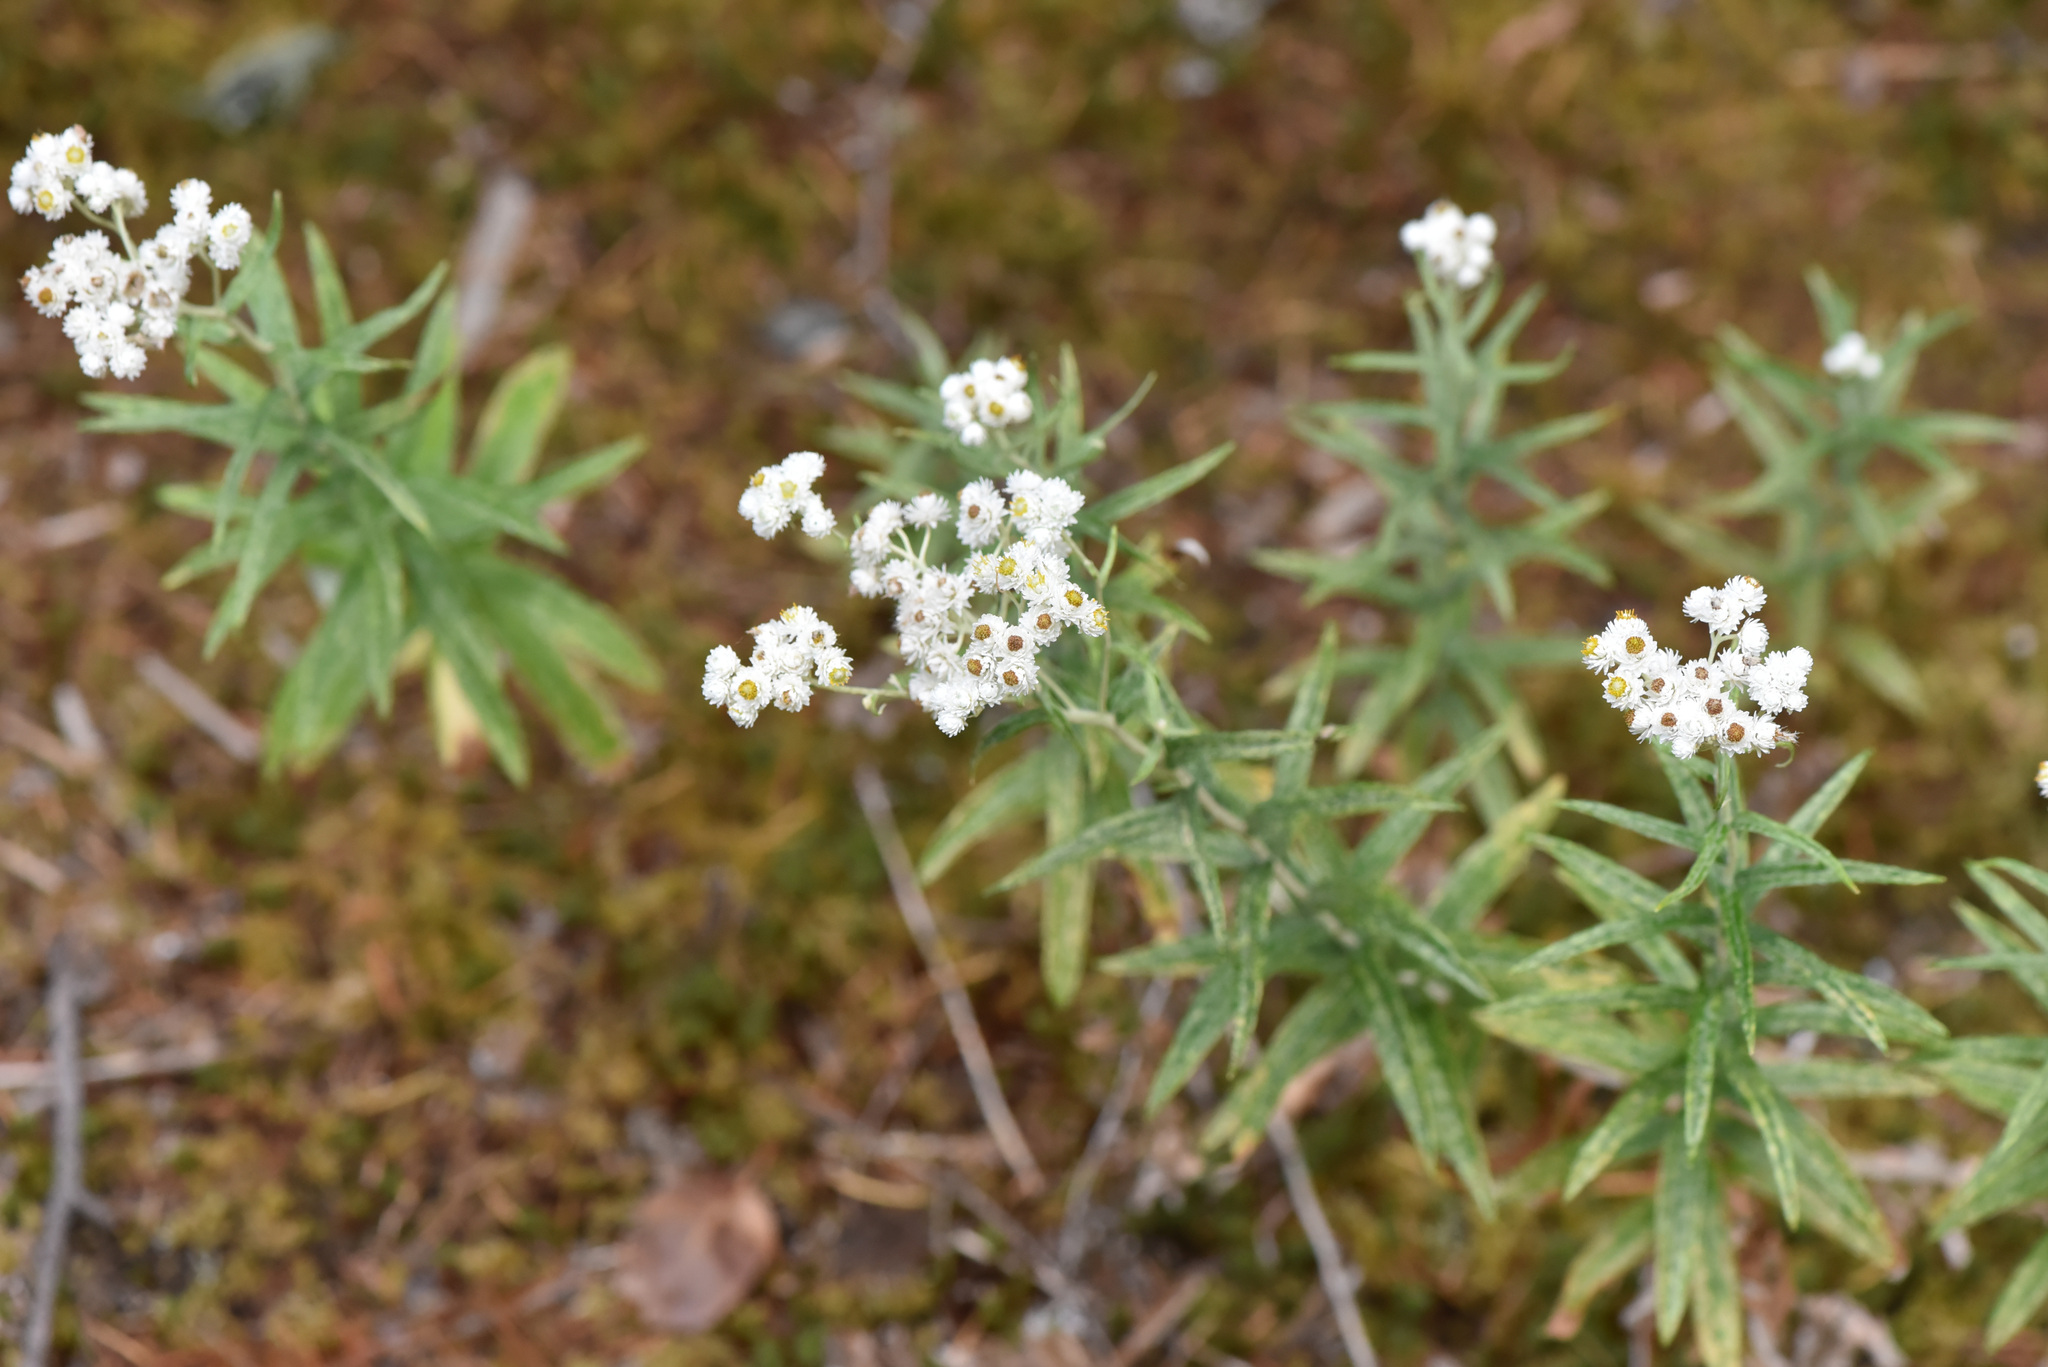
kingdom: Plantae
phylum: Tracheophyta
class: Magnoliopsida
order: Asterales
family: Asteraceae
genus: Anaphalis
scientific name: Anaphalis margaritacea
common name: Pearly everlasting
